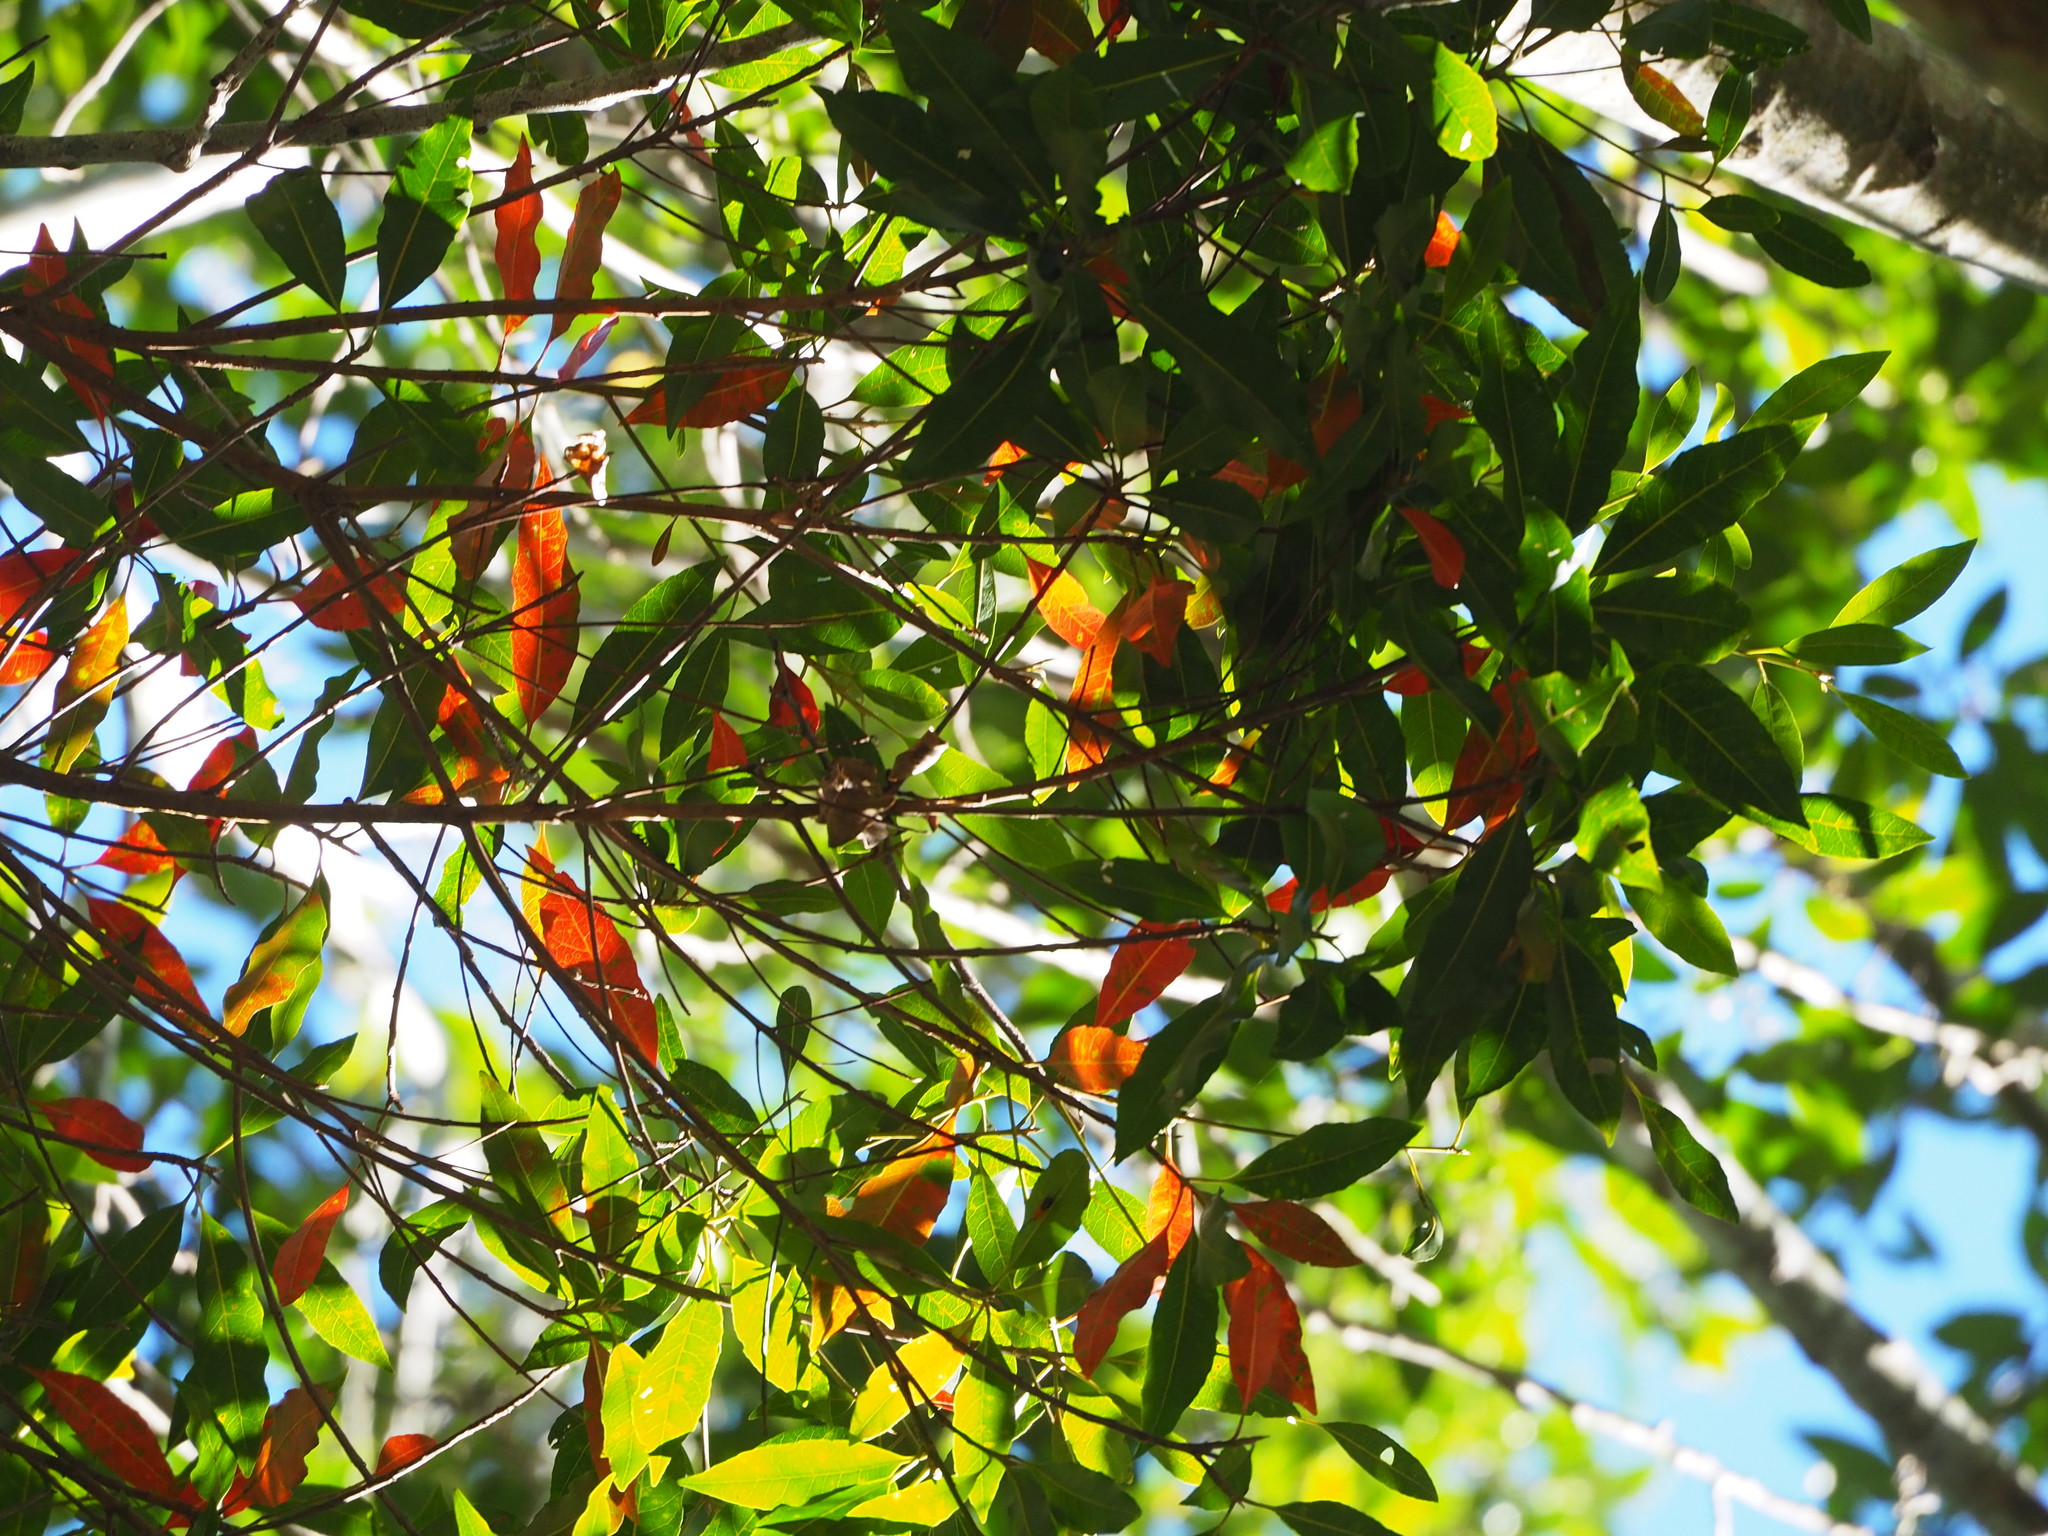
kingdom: Plantae
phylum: Tracheophyta
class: Magnoliopsida
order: Oxalidales
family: Elaeocarpaceae
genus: Elaeocarpus
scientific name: Elaeocarpus decipiens
